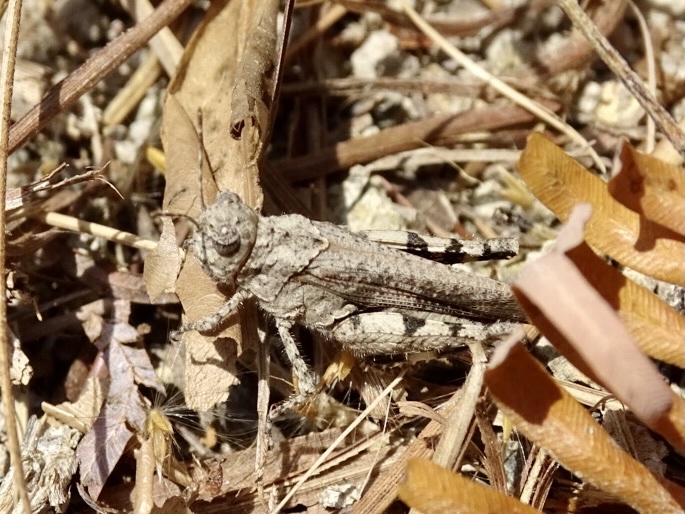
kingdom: Animalia
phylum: Arthropoda
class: Insecta
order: Orthoptera
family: Acrididae
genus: Trilophidia
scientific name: Trilophidia annulata
